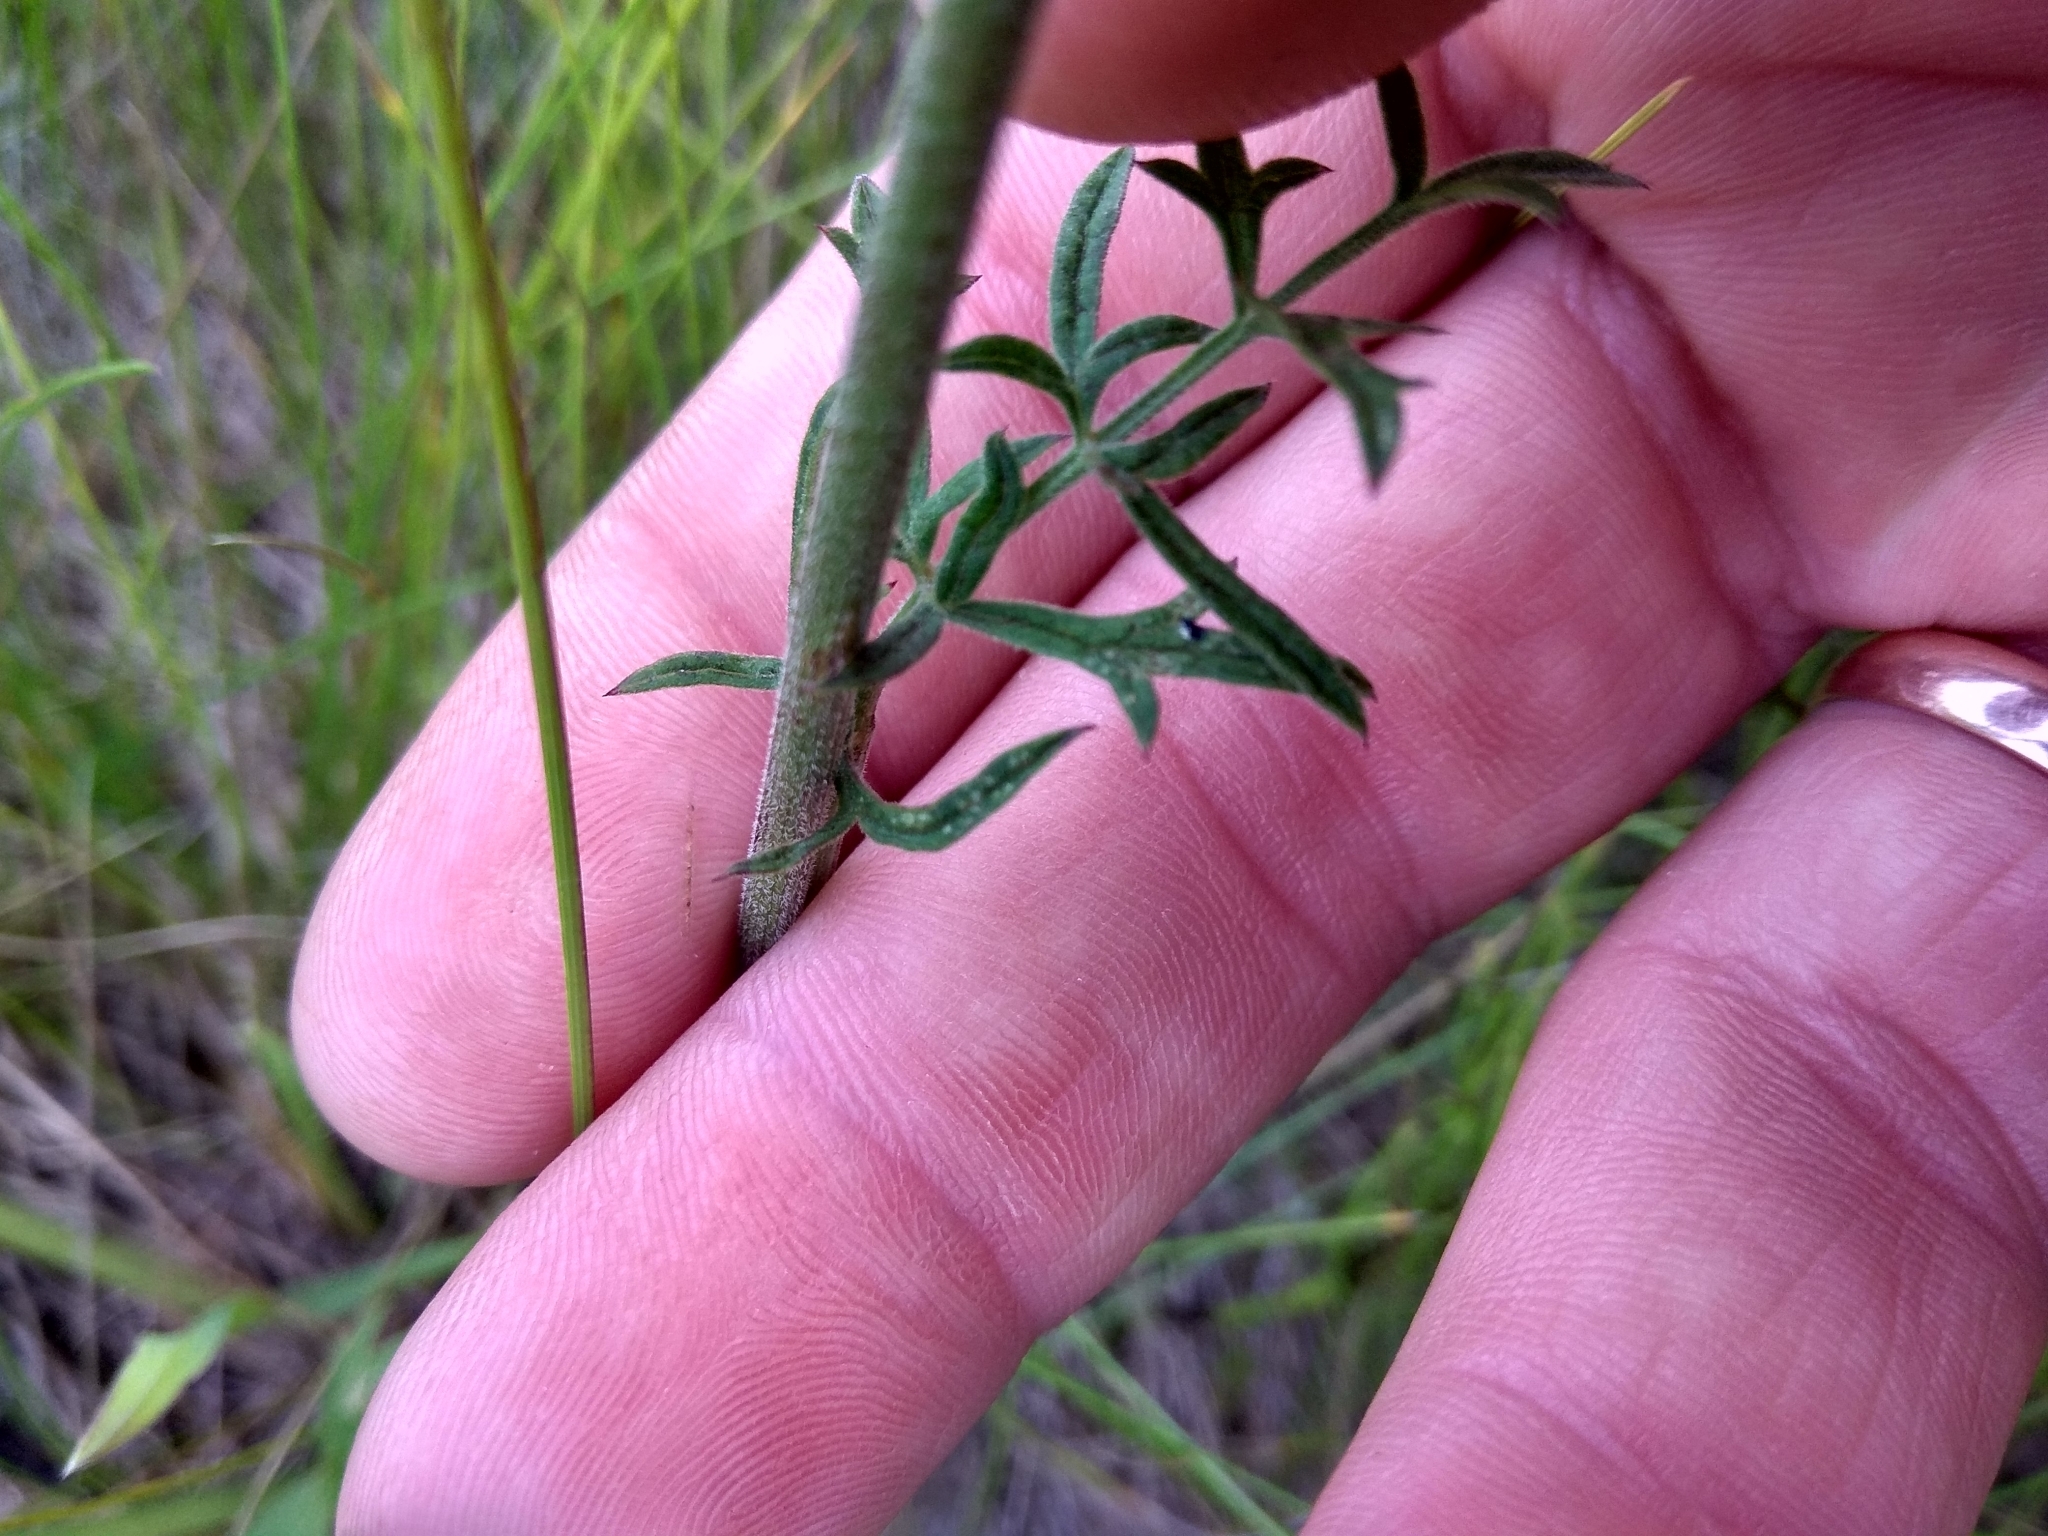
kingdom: Plantae
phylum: Tracheophyta
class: Magnoliopsida
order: Apiales
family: Apiaceae
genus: Pimpinella
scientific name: Pimpinella saxifraga
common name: Burnet-saxifrage
